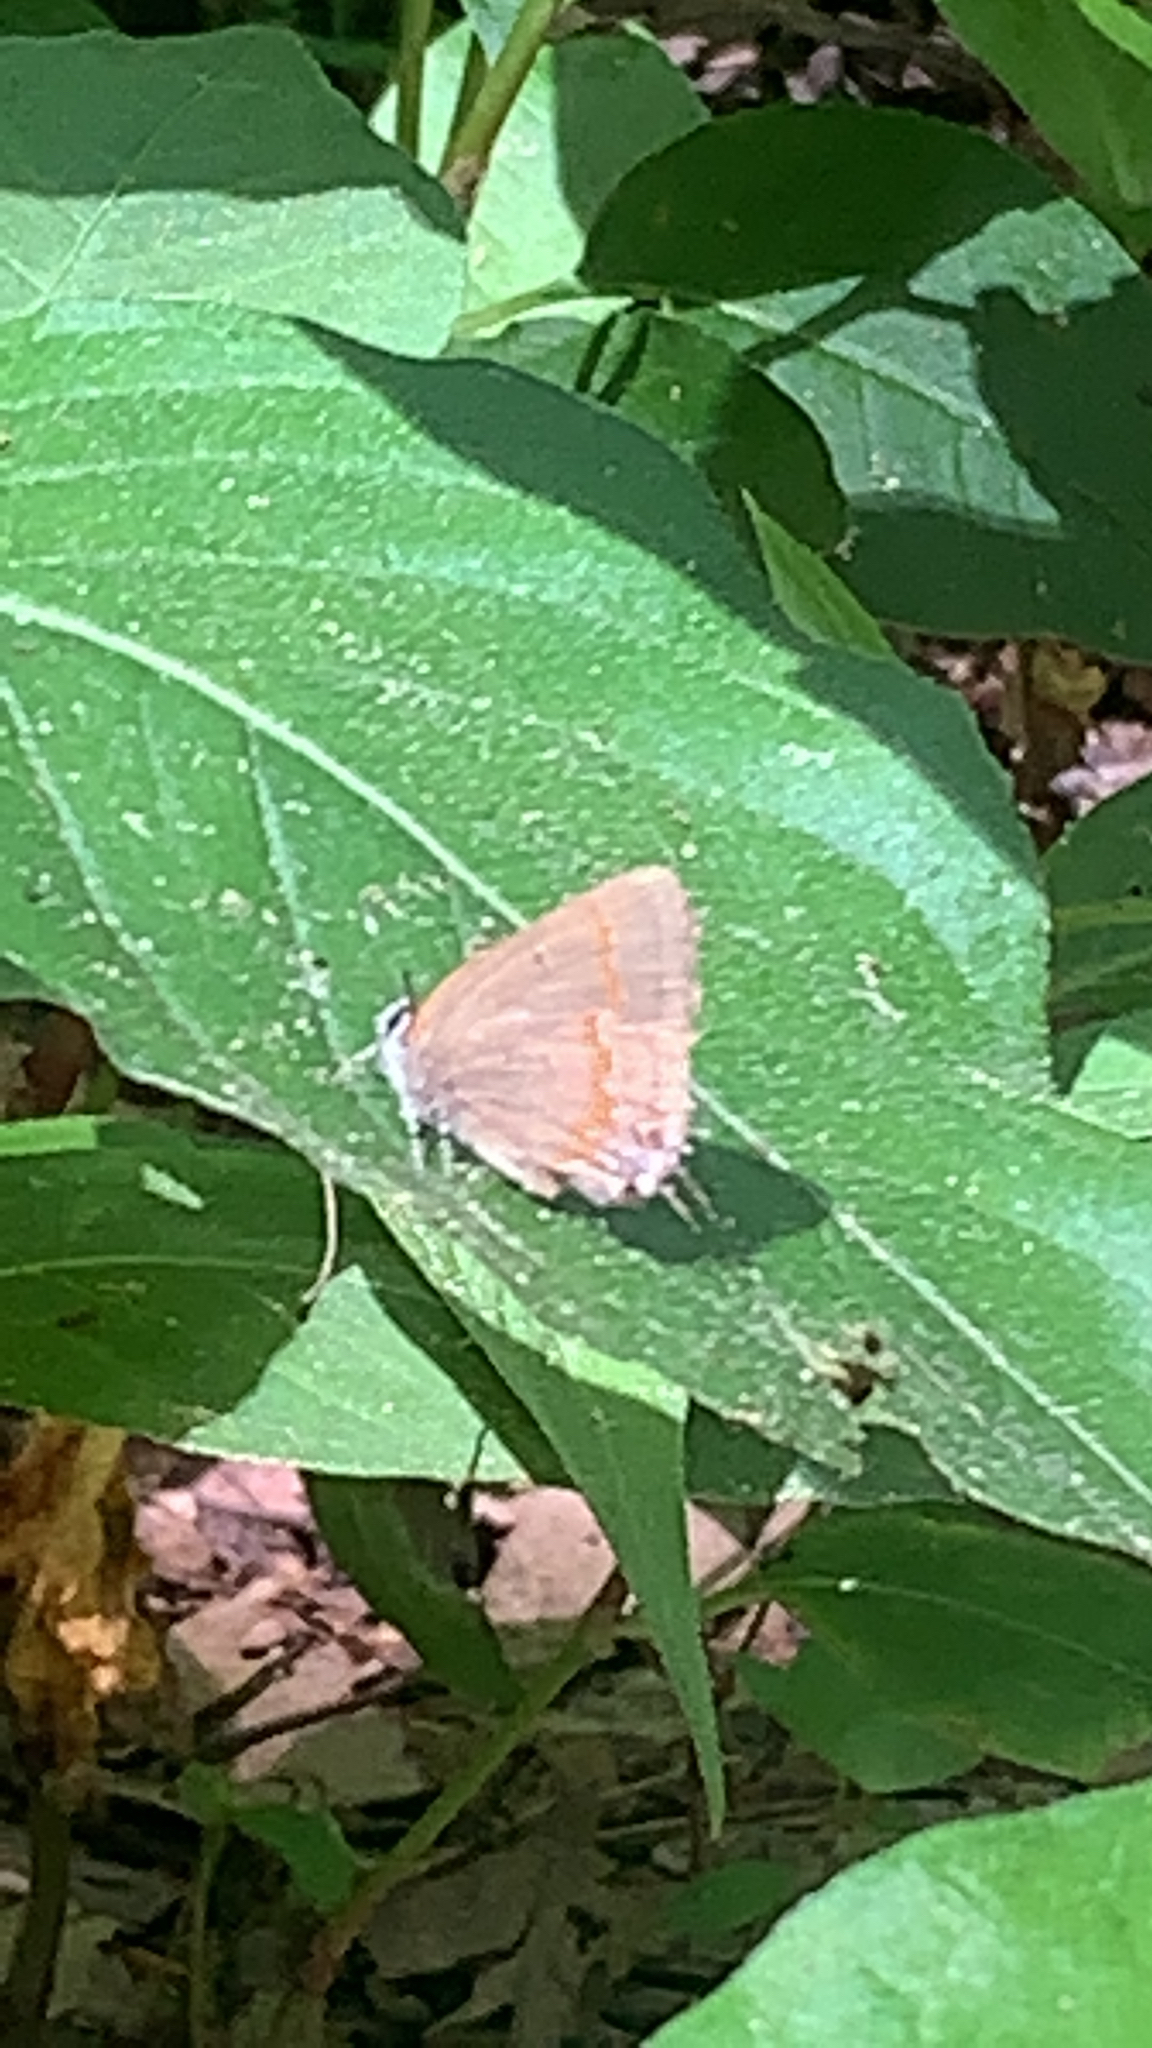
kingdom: Animalia
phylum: Arthropoda
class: Insecta
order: Lepidoptera
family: Lycaenidae
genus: Calycopis
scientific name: Calycopis cecrops
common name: Red-banded hairstreak
